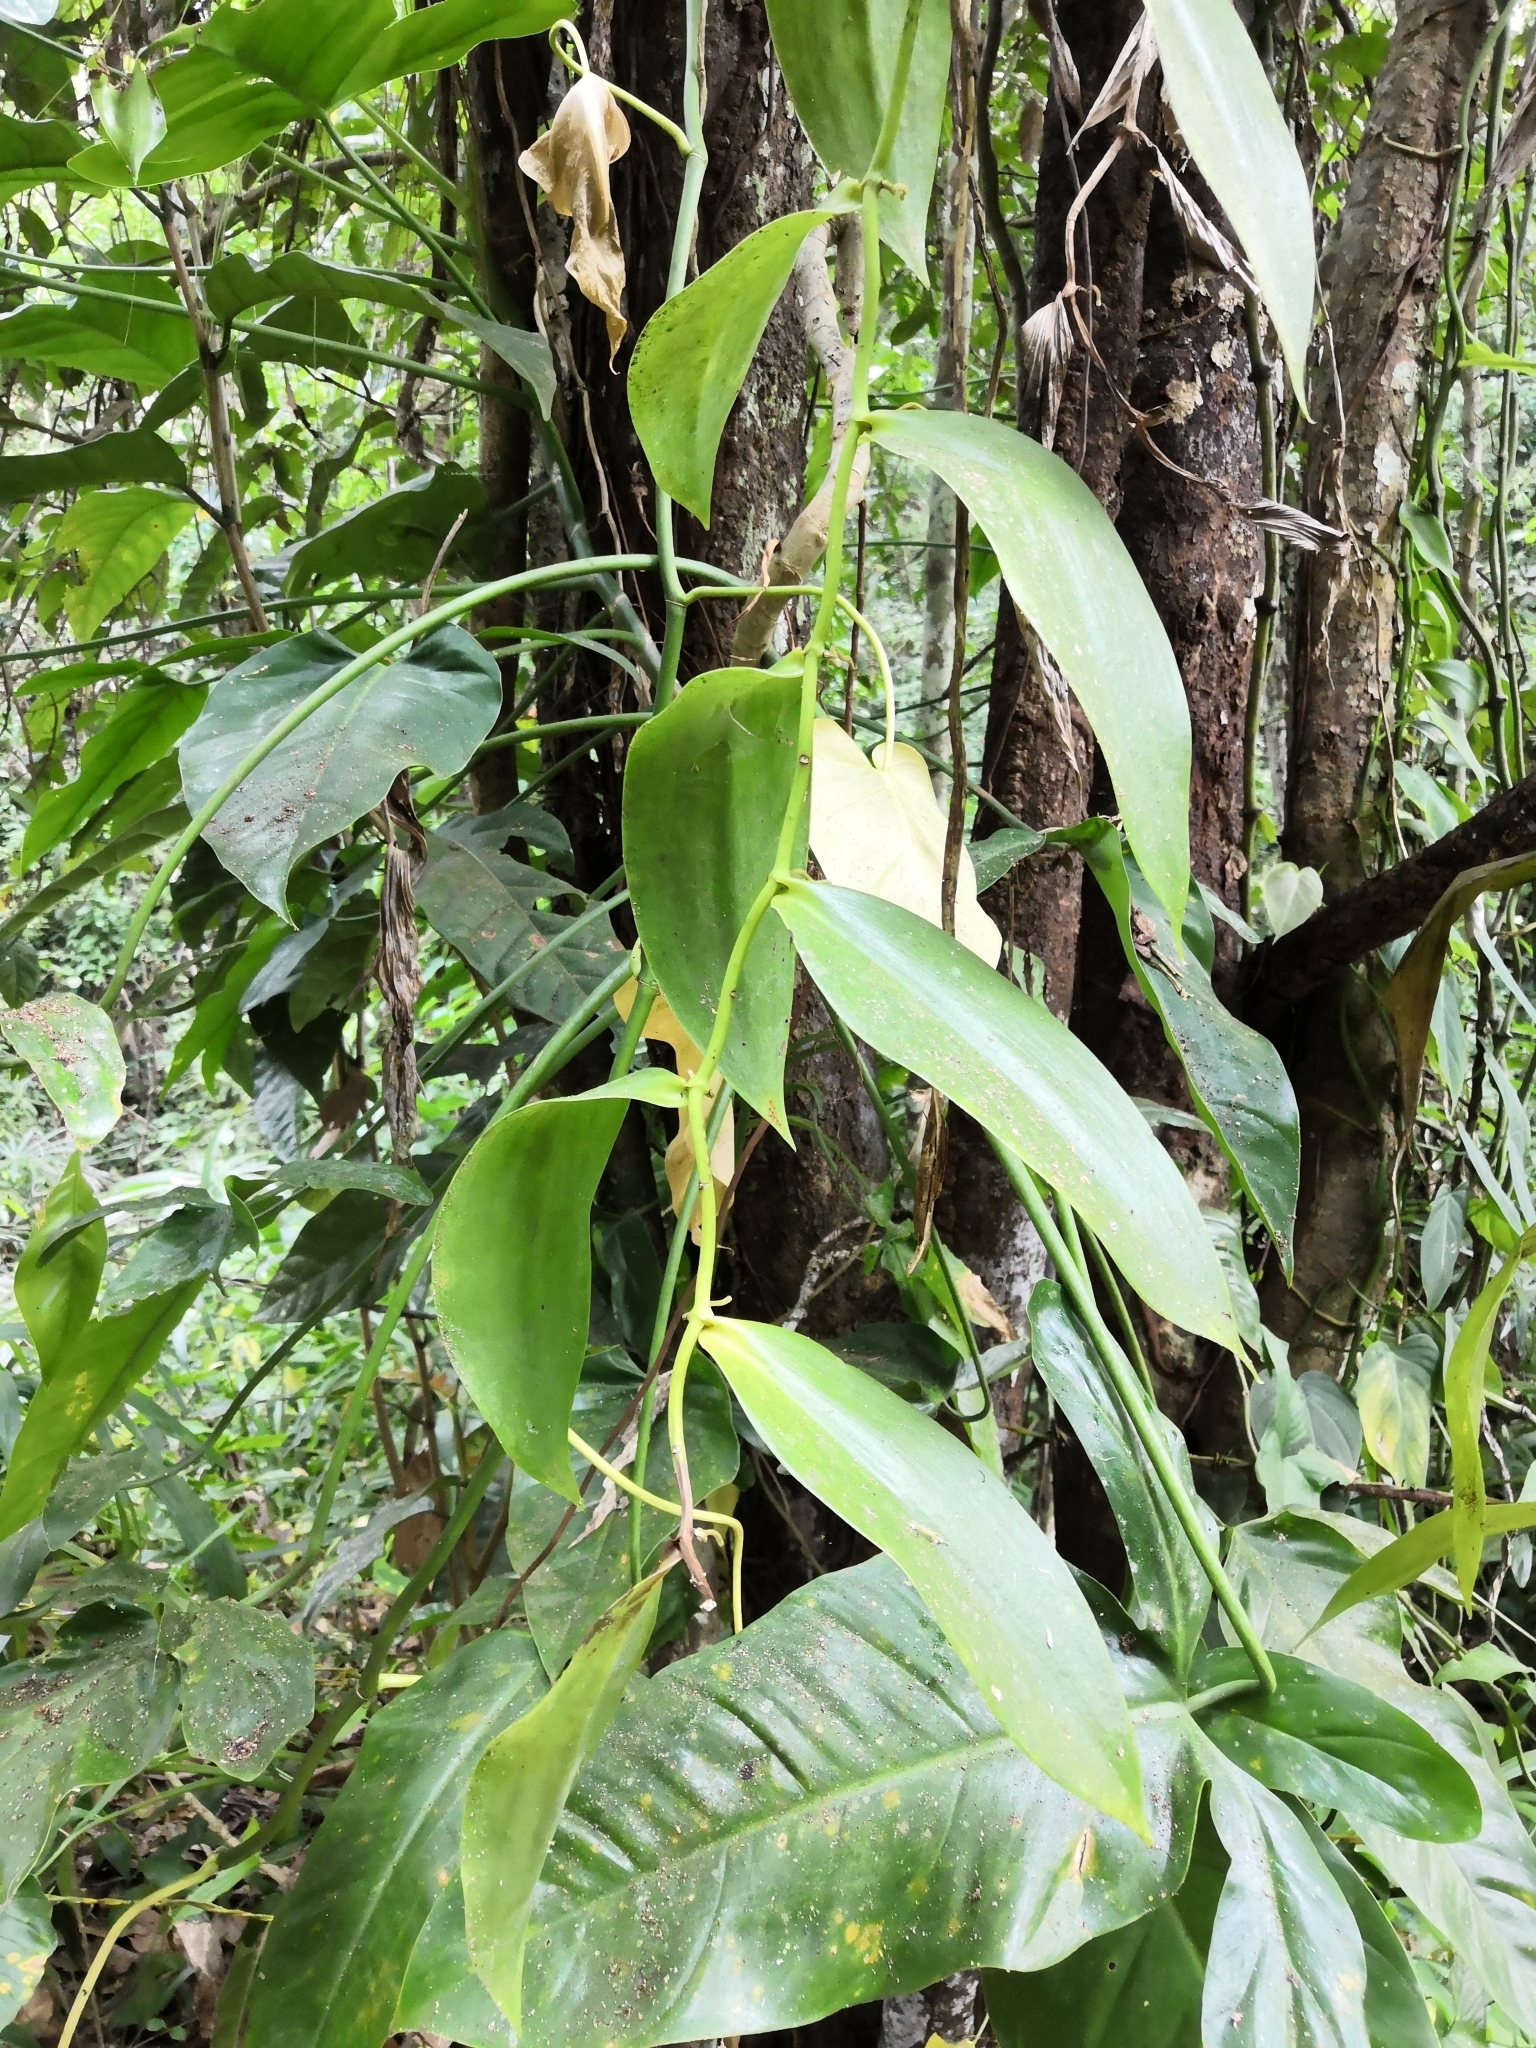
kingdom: Plantae
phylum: Tracheophyta
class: Liliopsida
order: Asparagales
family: Orchidaceae
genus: Vanilla
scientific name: Vanilla inodora
